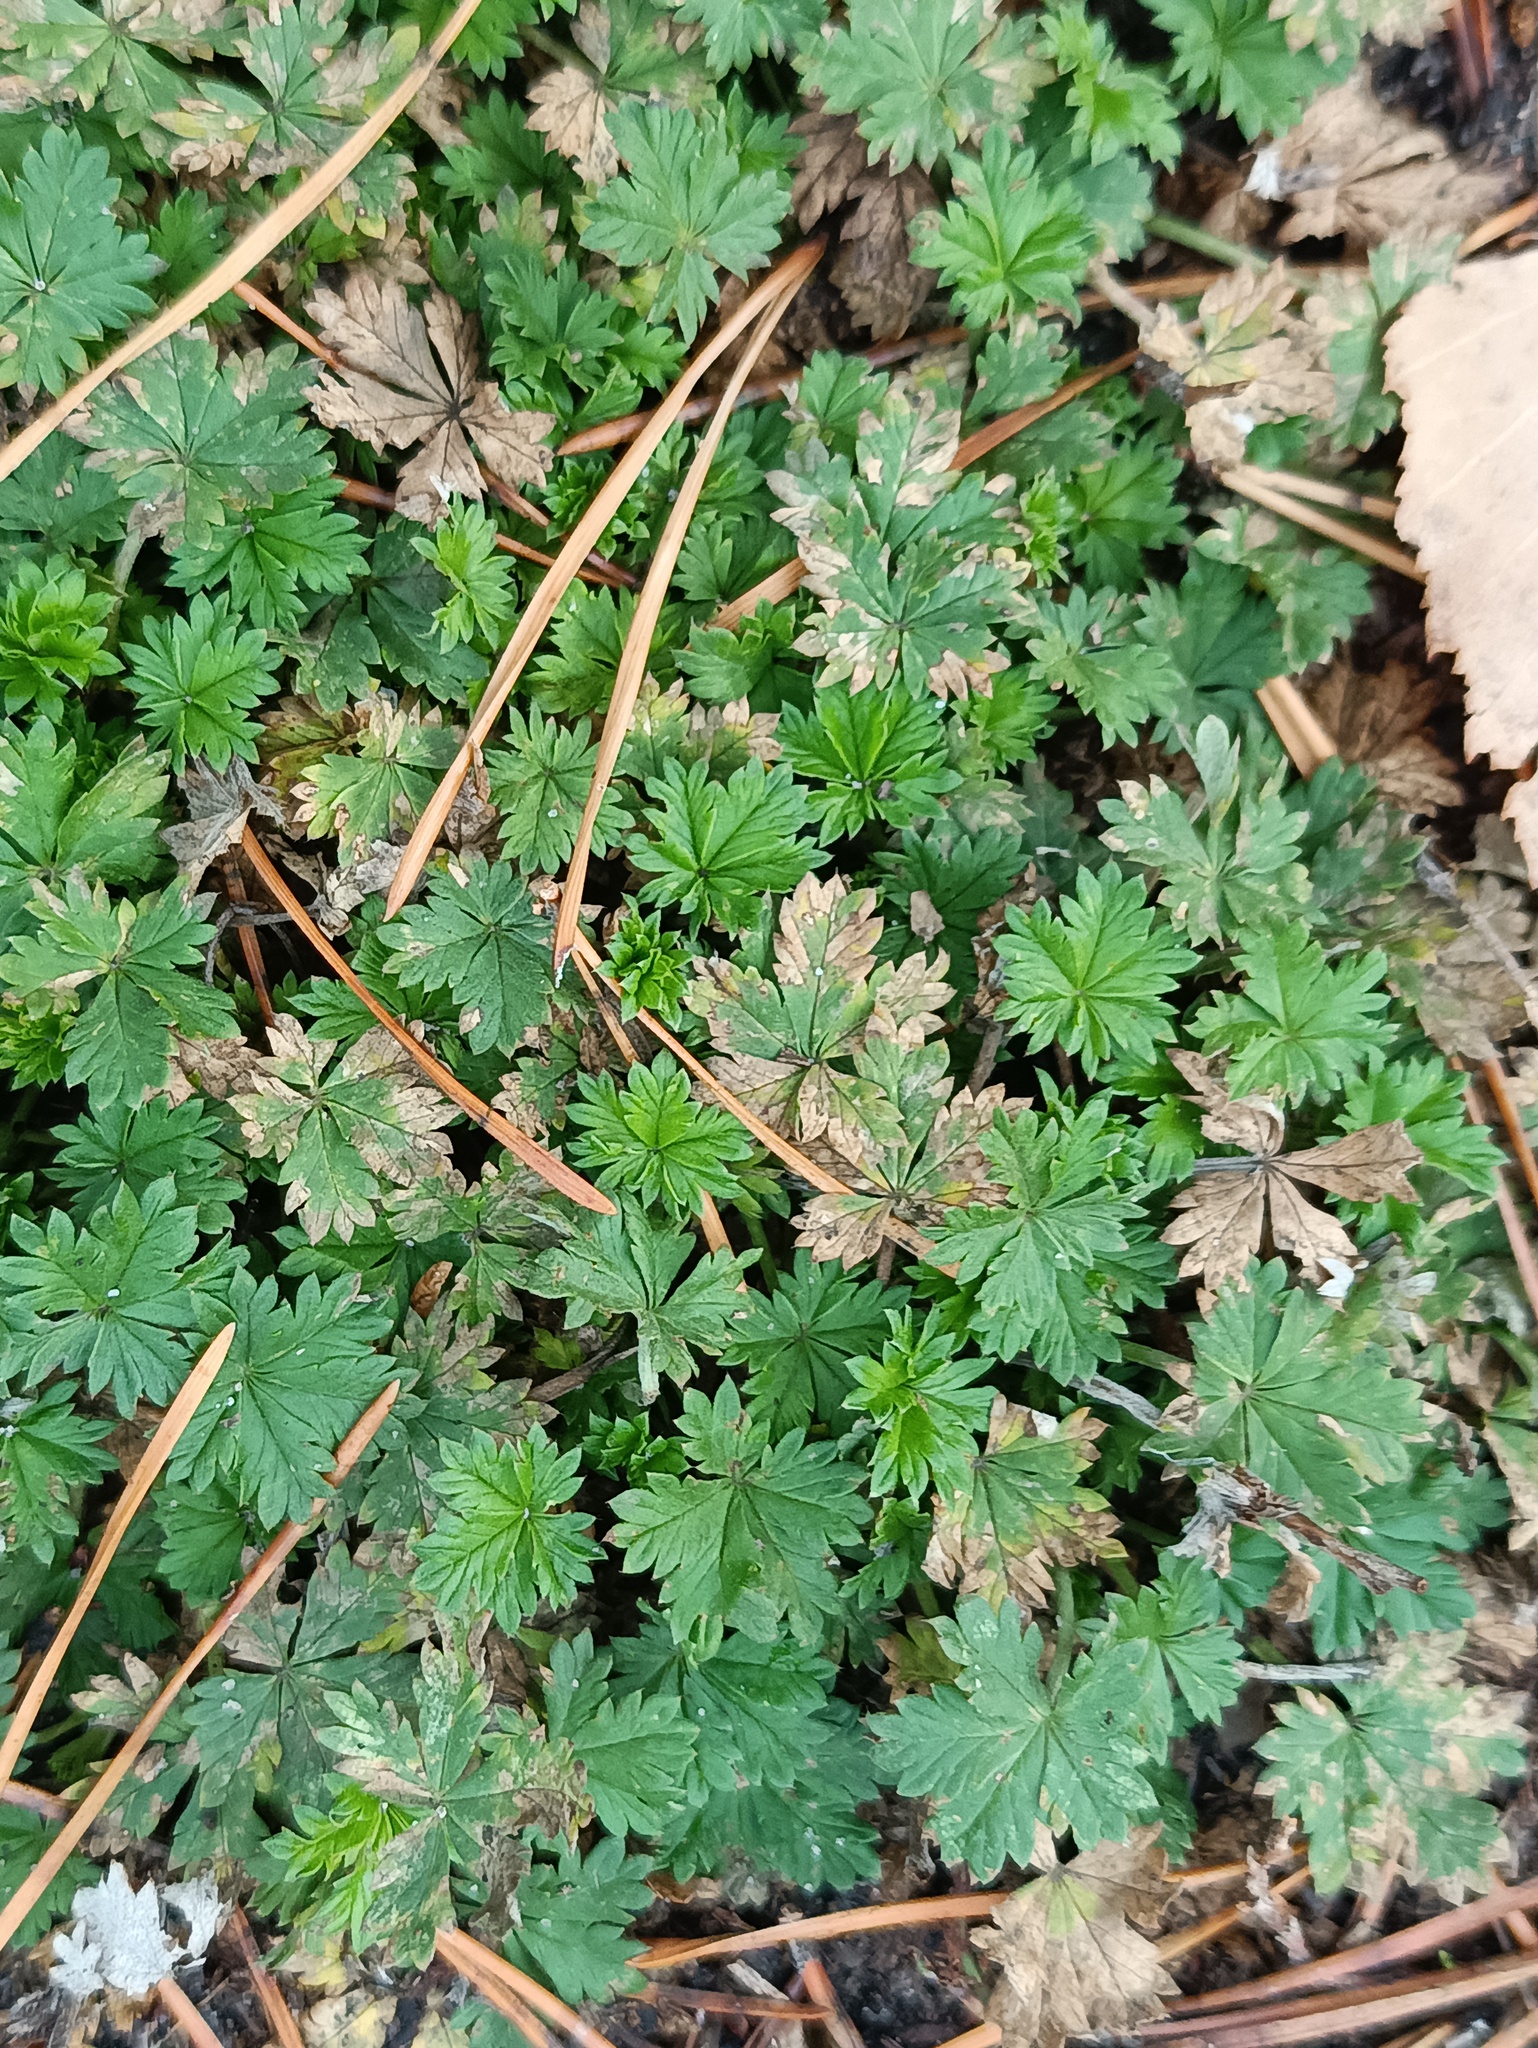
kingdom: Plantae
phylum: Tracheophyta
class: Magnoliopsida
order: Rosales
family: Rosaceae
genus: Potentilla
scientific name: Potentilla argentea
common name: Hoary cinquefoil
